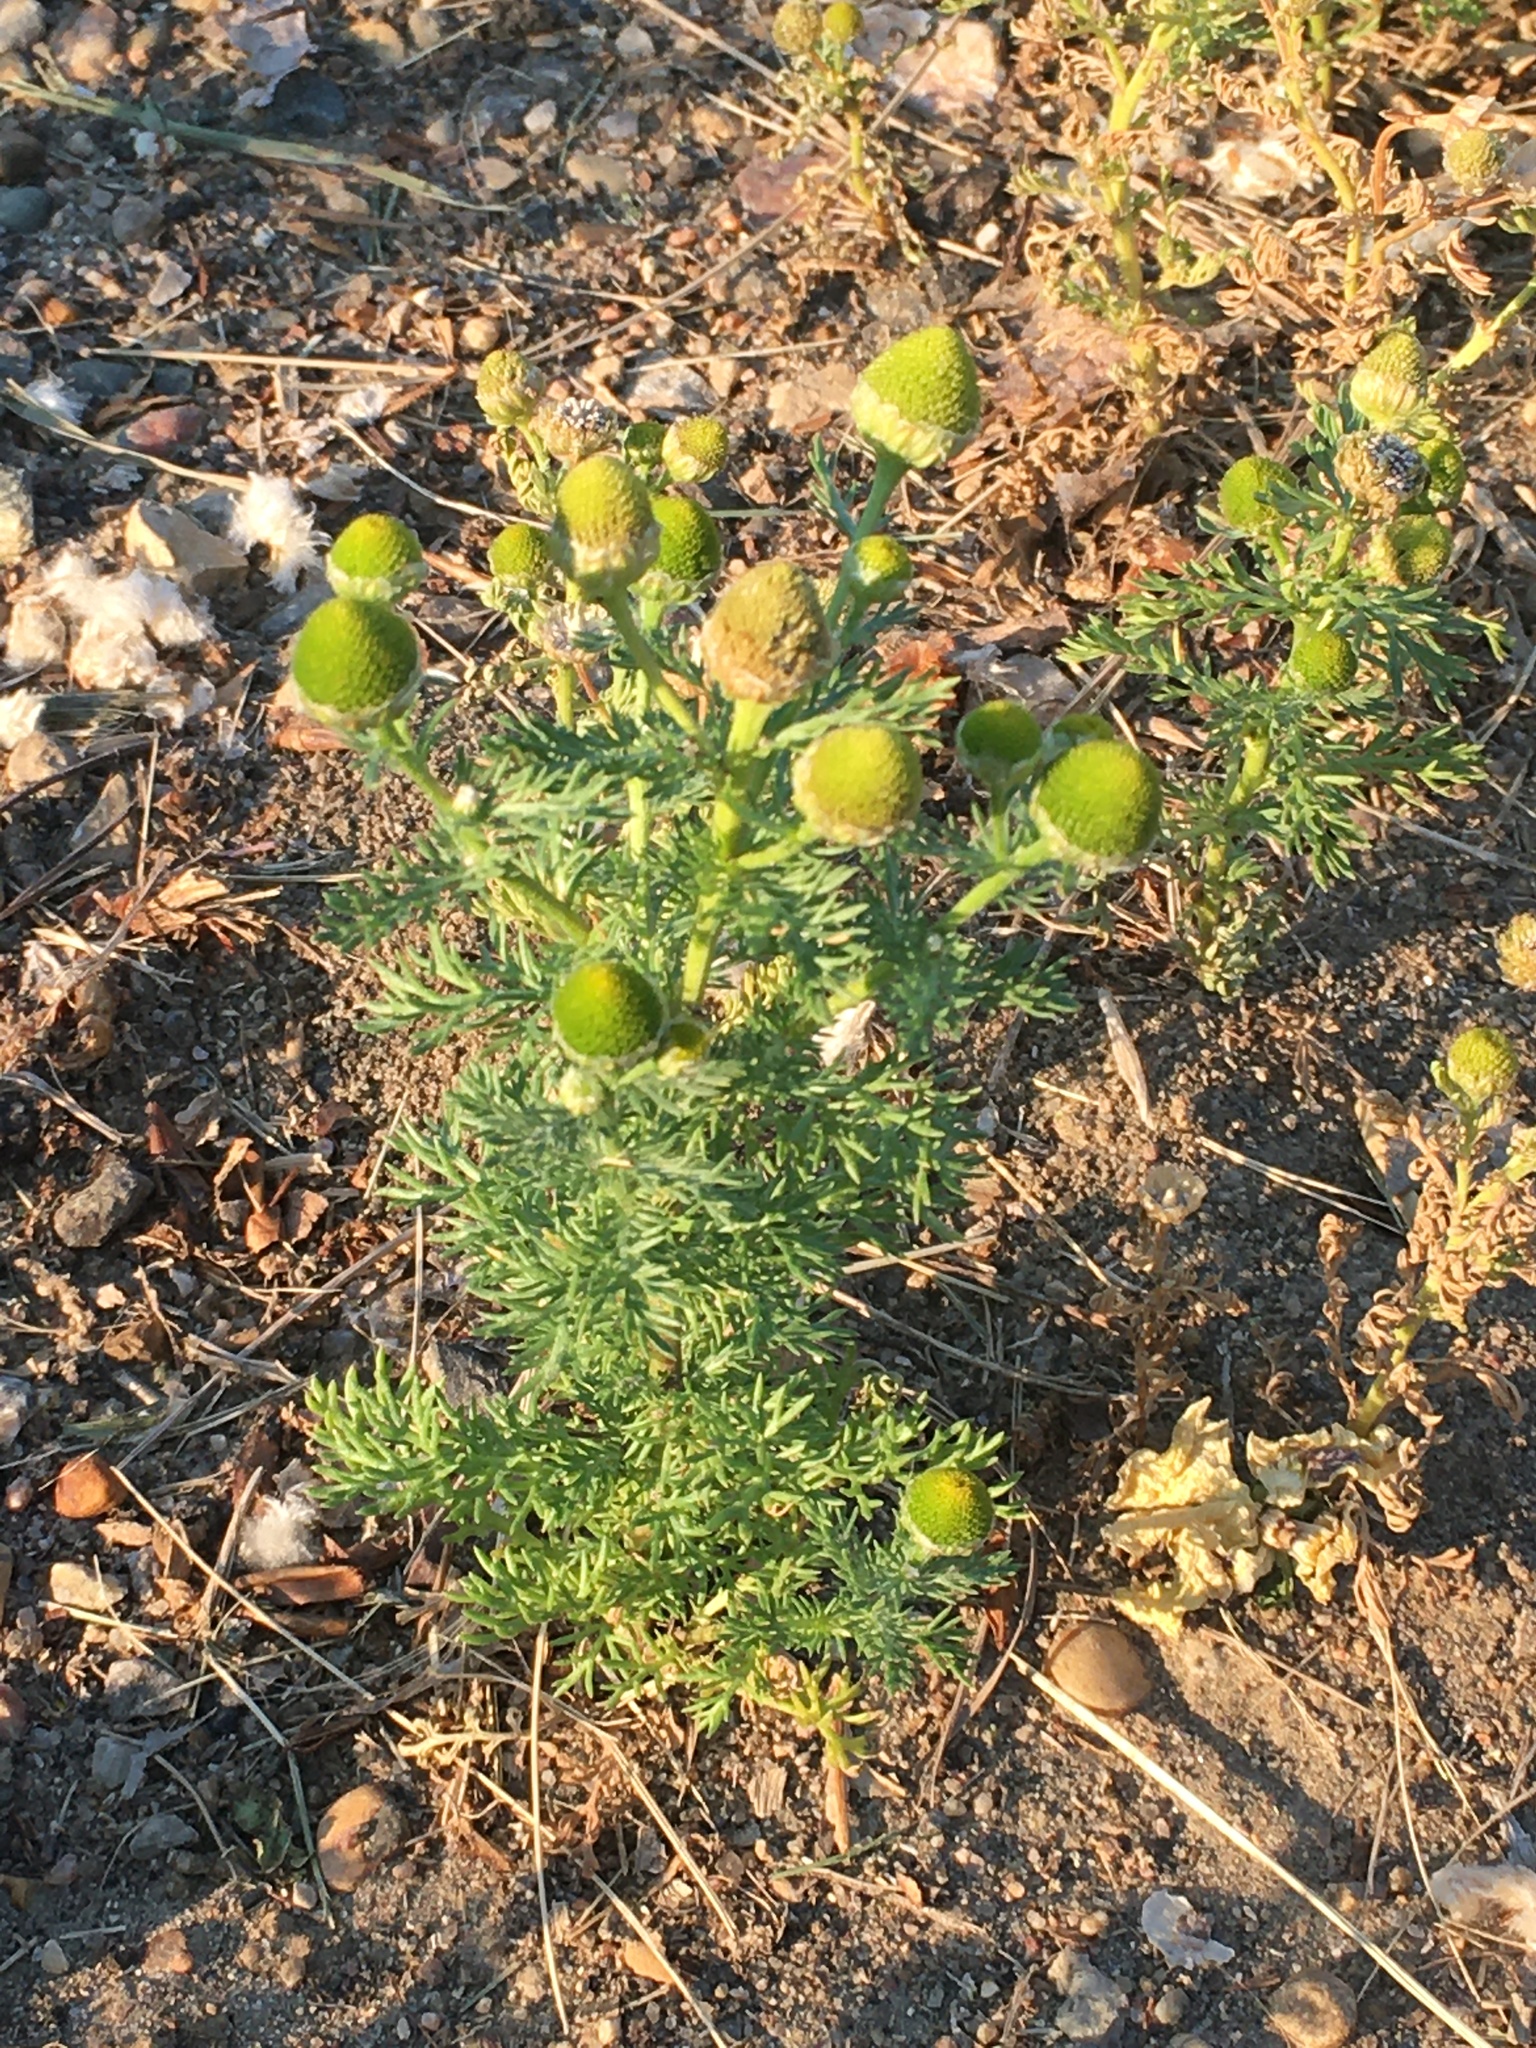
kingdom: Plantae
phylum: Tracheophyta
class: Magnoliopsida
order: Asterales
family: Asteraceae
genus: Matricaria
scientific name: Matricaria discoidea
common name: Disc mayweed
